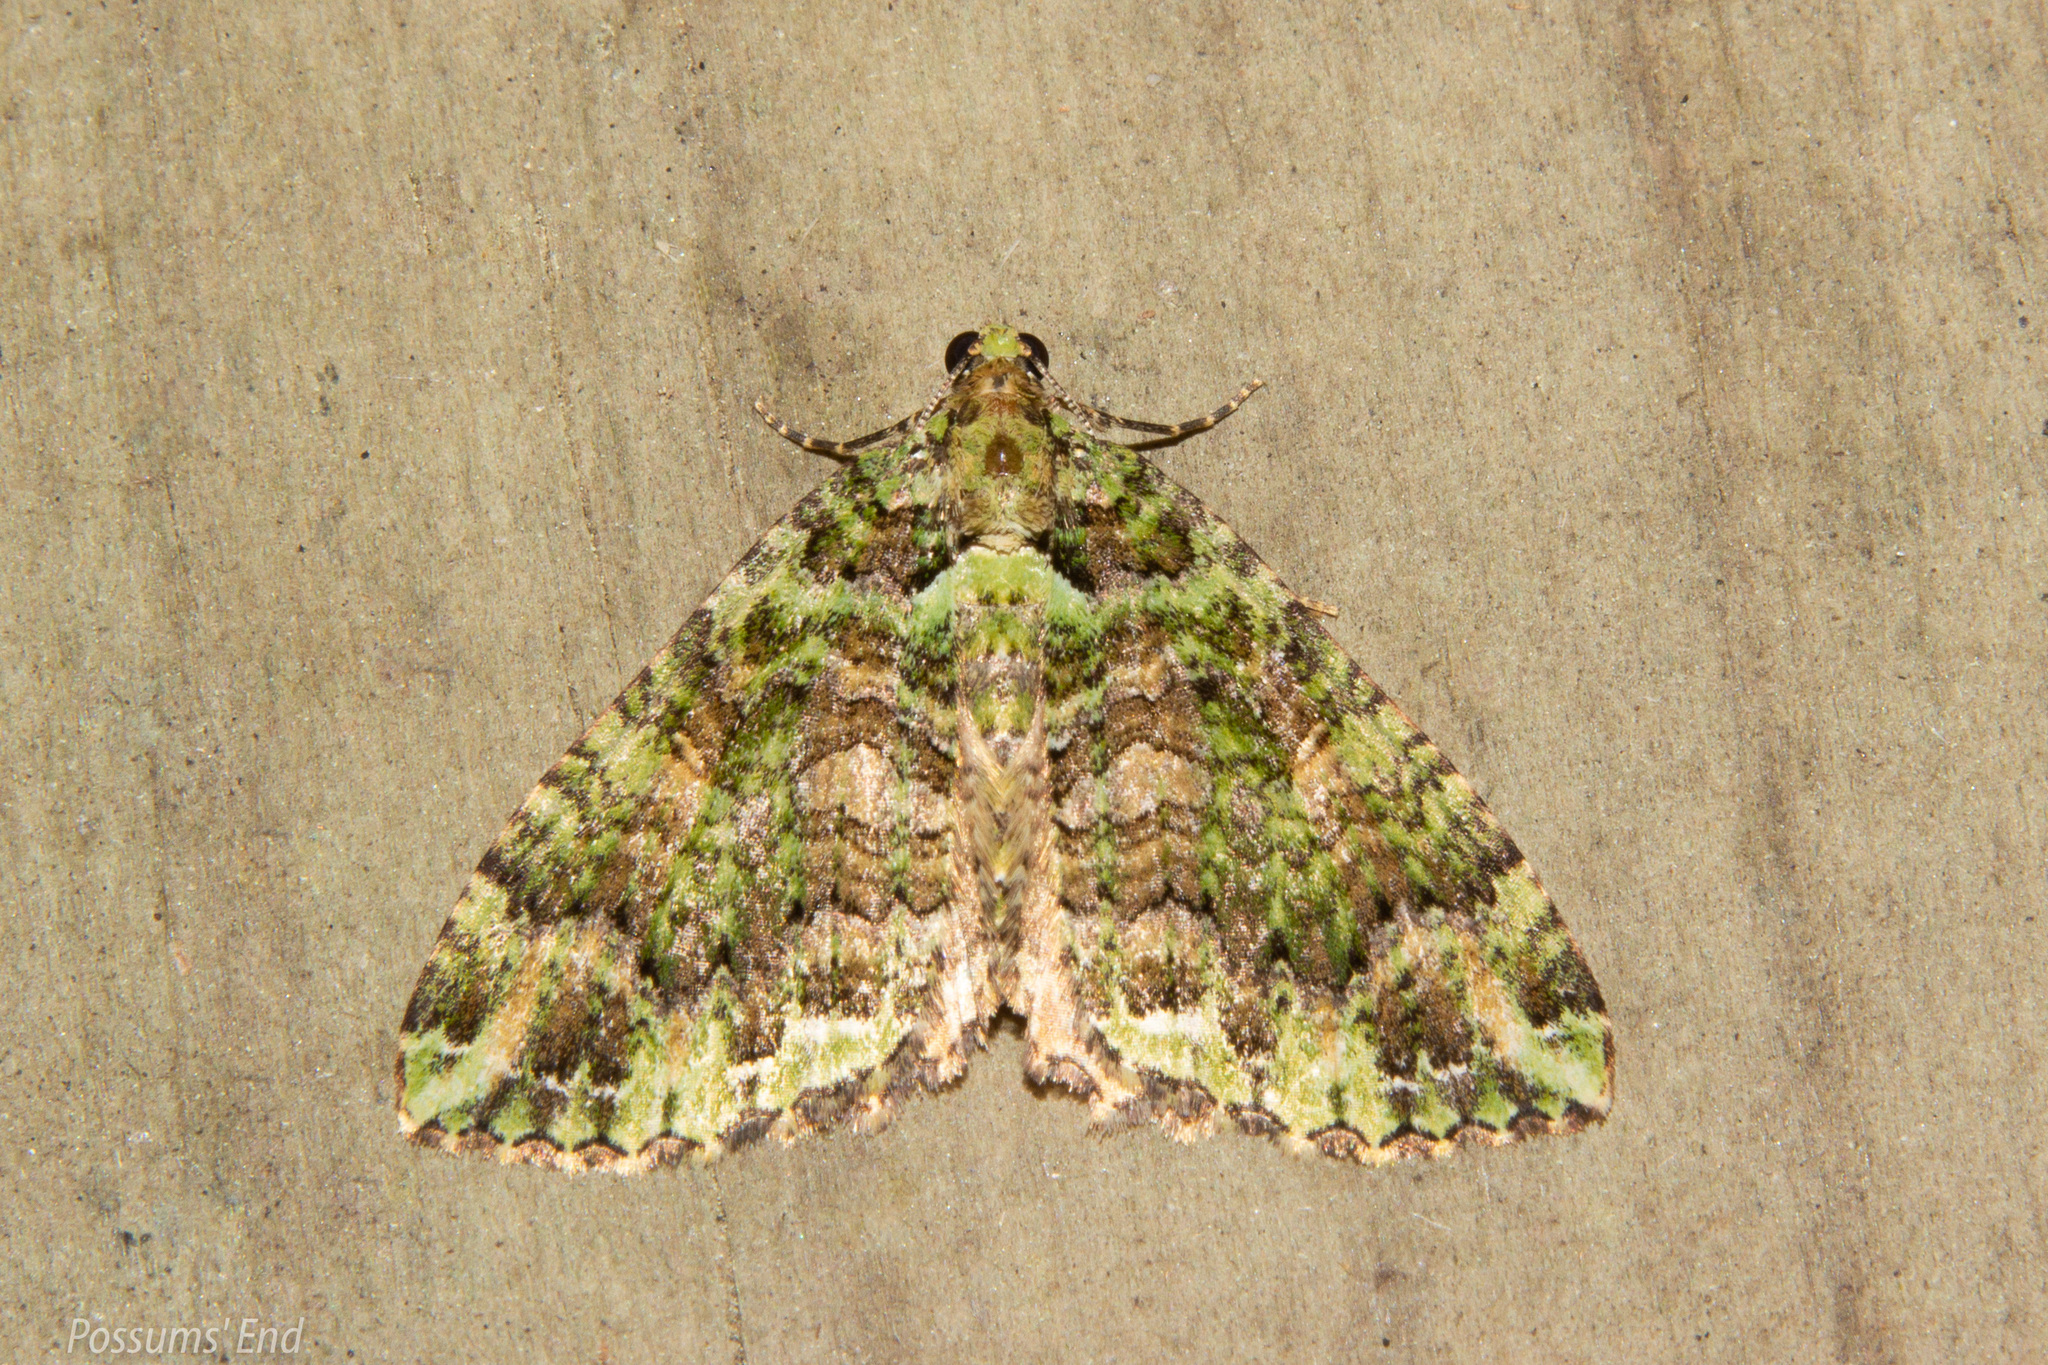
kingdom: Animalia
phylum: Arthropoda
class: Insecta
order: Lepidoptera
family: Geometridae
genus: Austrocidaria
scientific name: Austrocidaria similata
